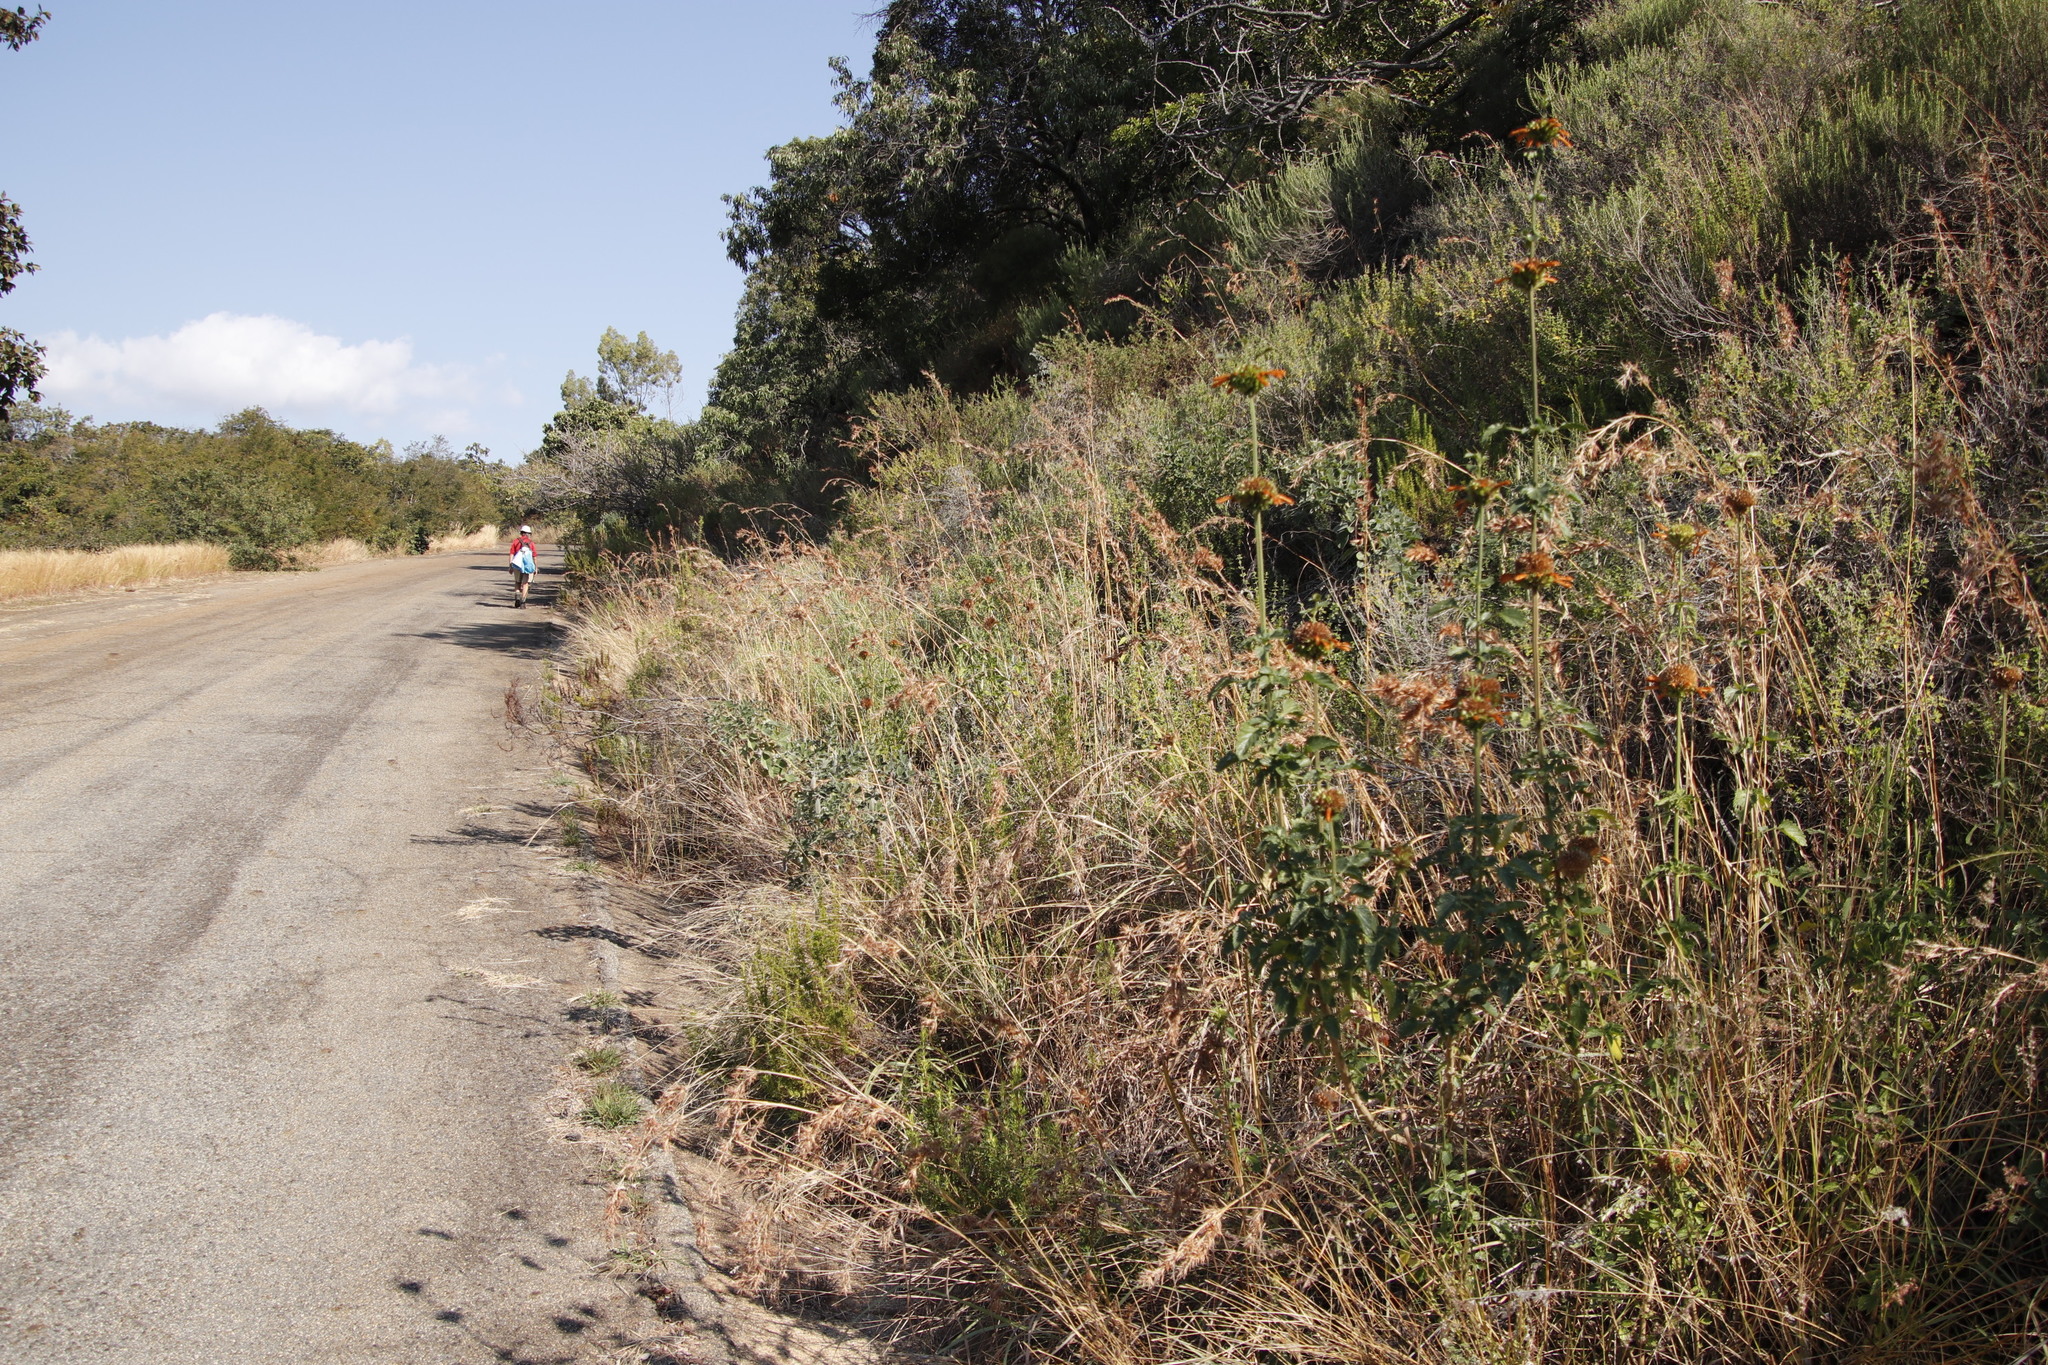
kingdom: Plantae
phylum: Tracheophyta
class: Magnoliopsida
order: Lamiales
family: Lamiaceae
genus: Leonotis
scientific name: Leonotis ocymifolia
